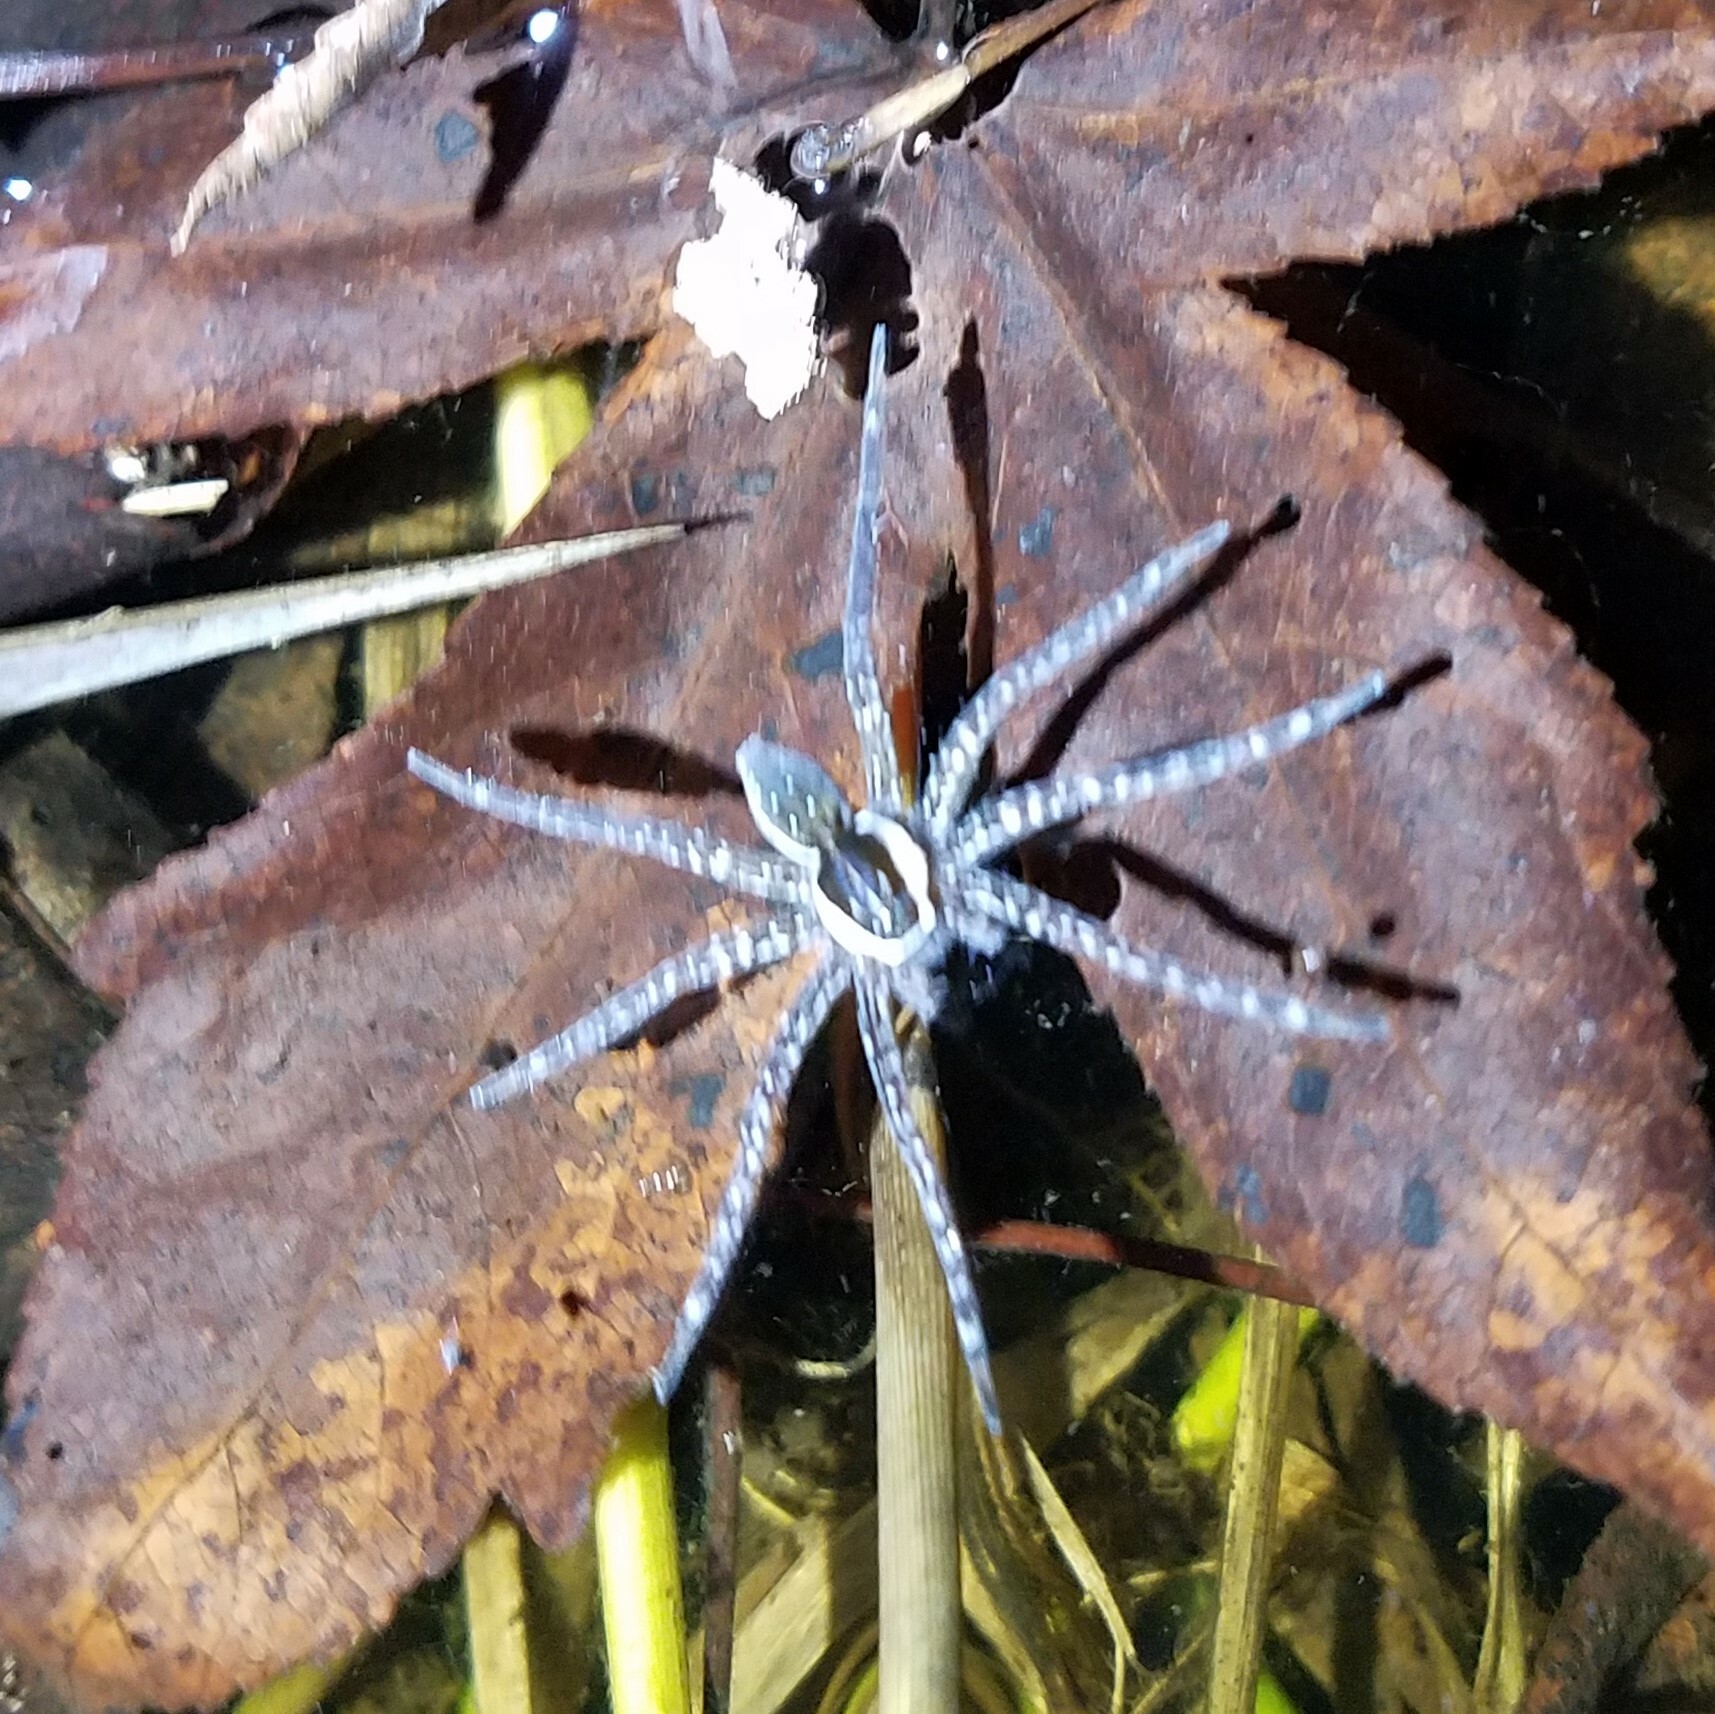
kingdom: Animalia
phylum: Arthropoda
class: Arachnida
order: Araneae
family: Pisauridae
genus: Dolomedes
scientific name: Dolomedes triton
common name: Six-spotted fishing spider
